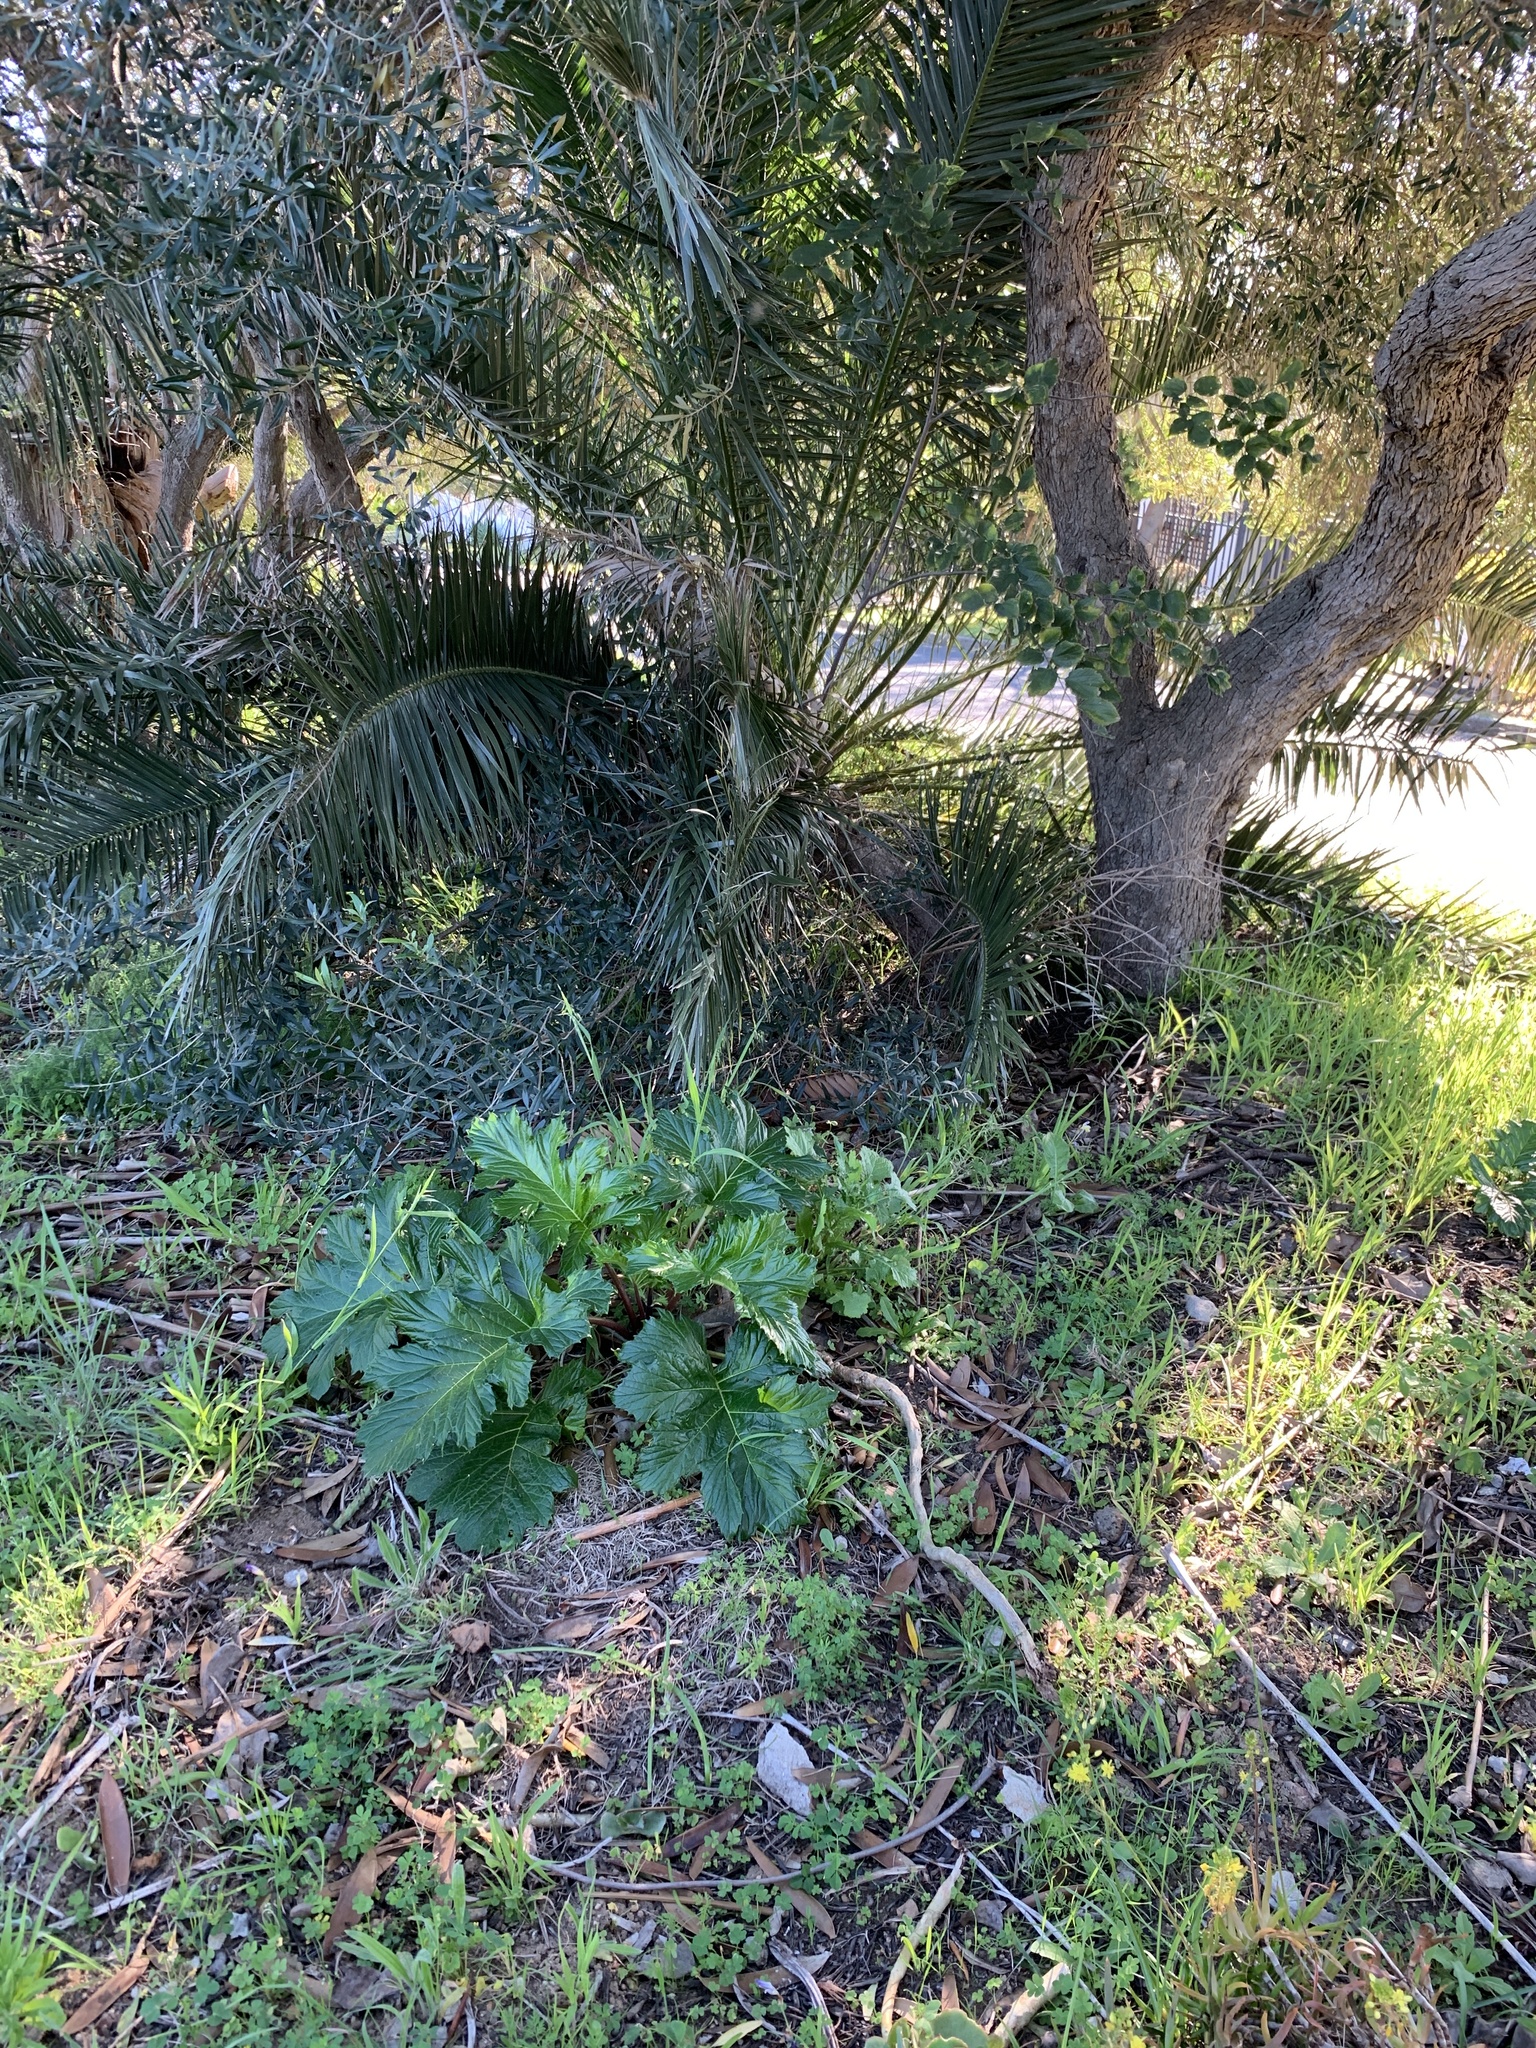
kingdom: Plantae
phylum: Tracheophyta
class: Magnoliopsida
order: Lamiales
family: Acanthaceae
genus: Acanthus
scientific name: Acanthus mollis
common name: Bear's-breech
